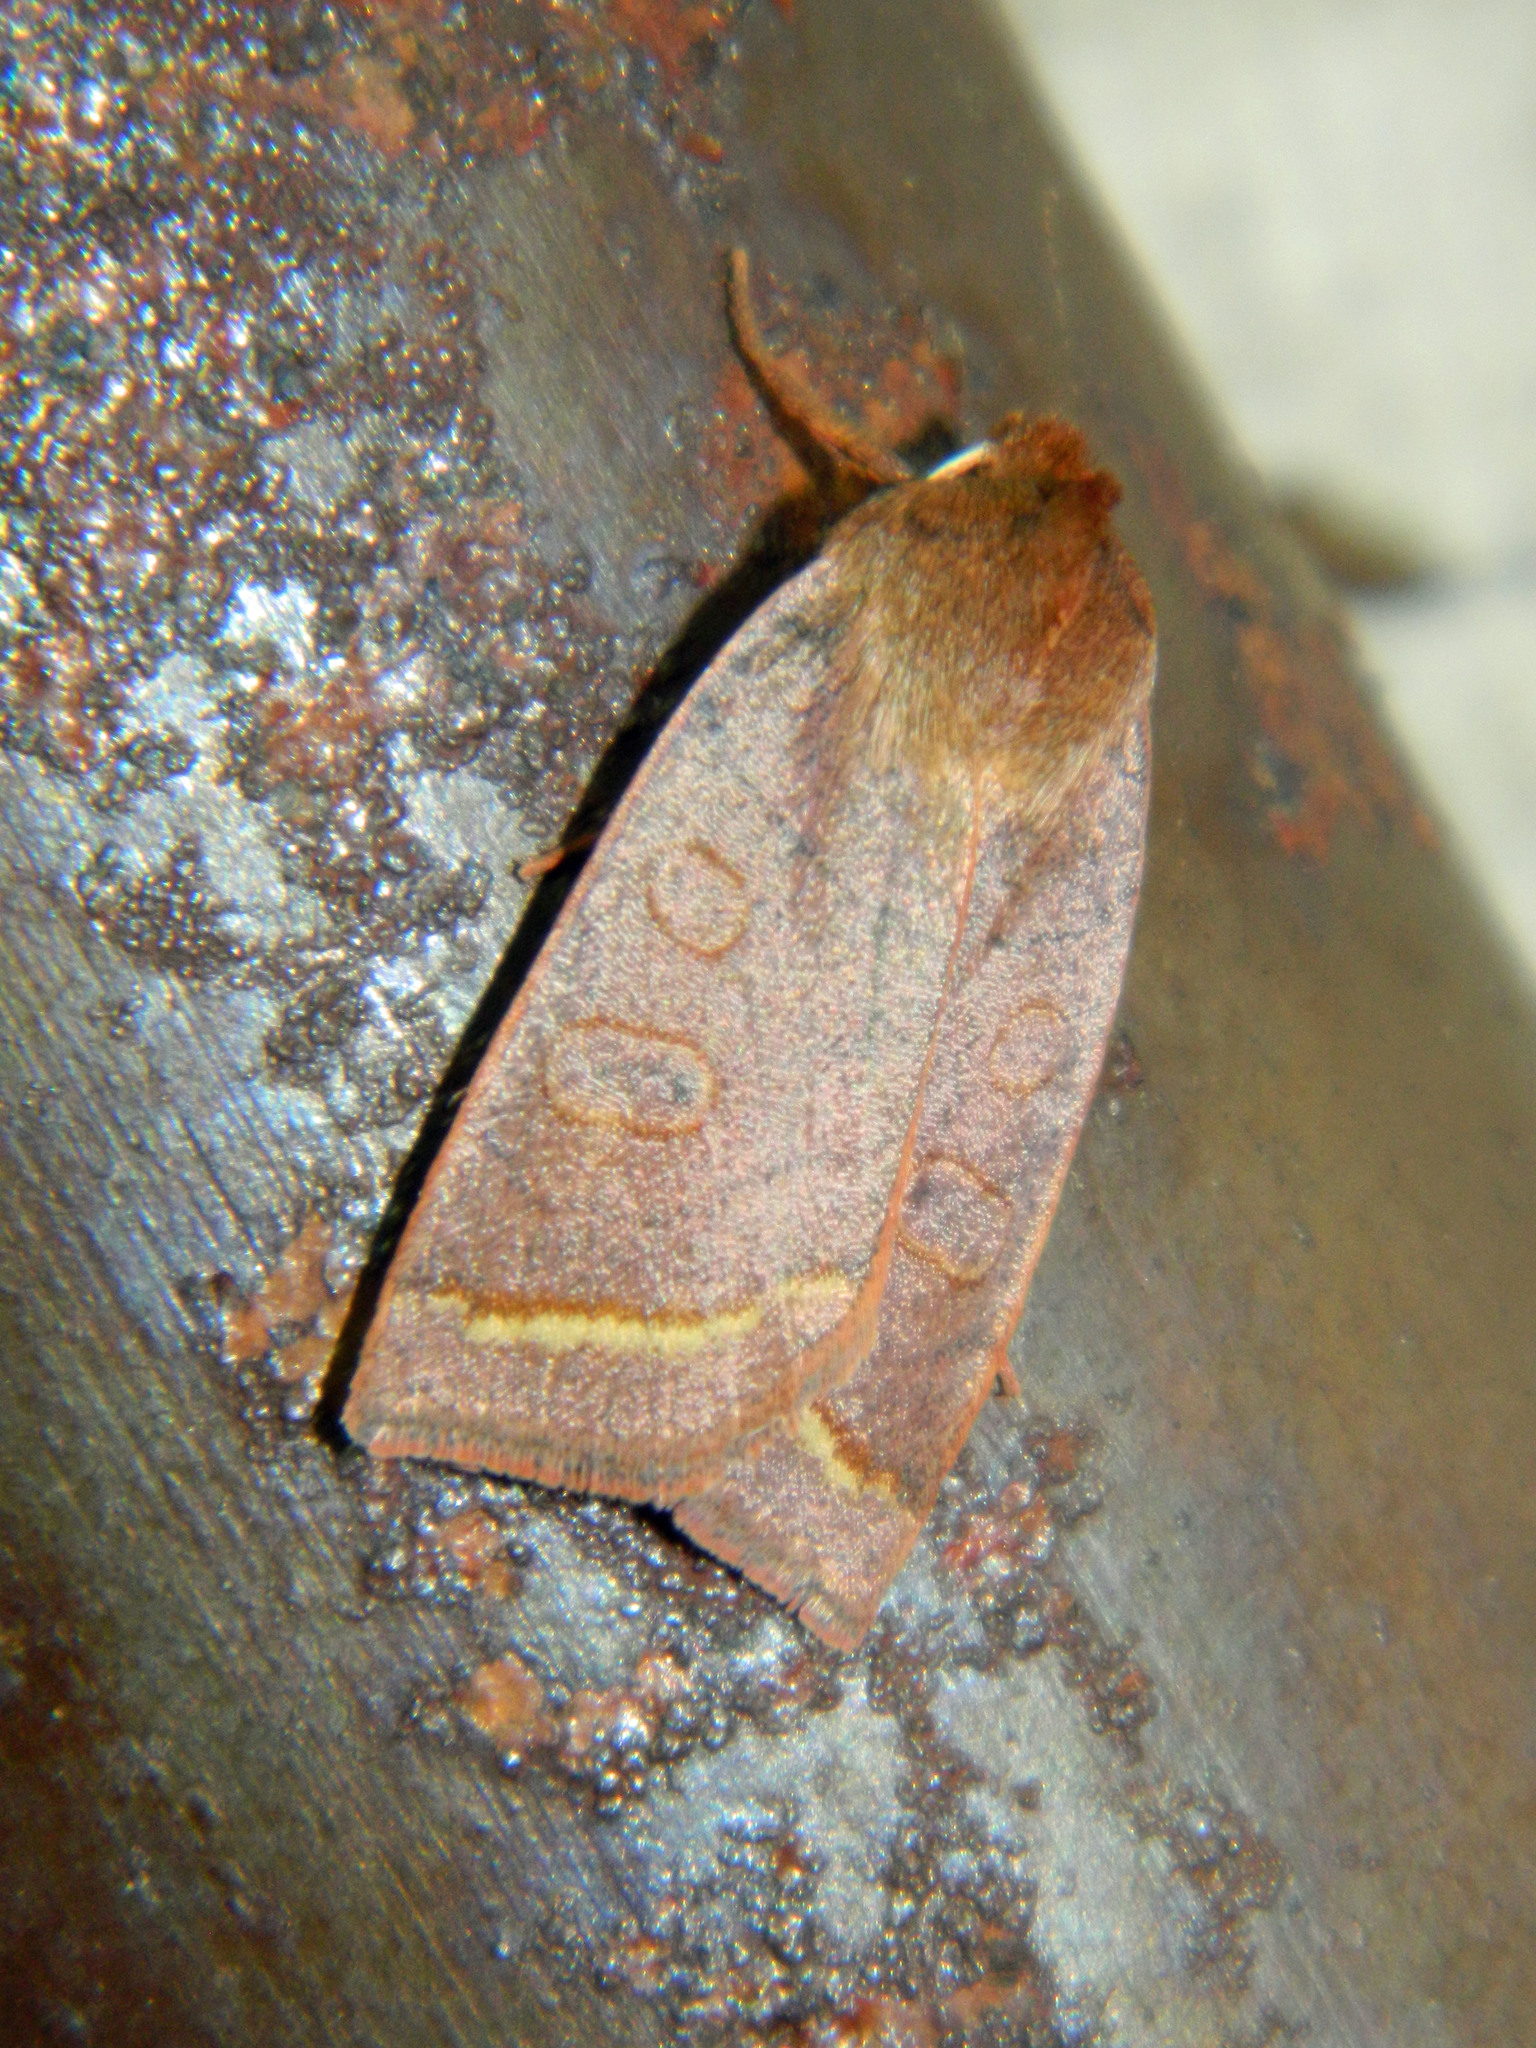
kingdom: Animalia
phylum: Arthropoda
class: Insecta
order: Lepidoptera
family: Noctuidae
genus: Epiglaea
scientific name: Epiglaea apiata
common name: Pointed sallow
